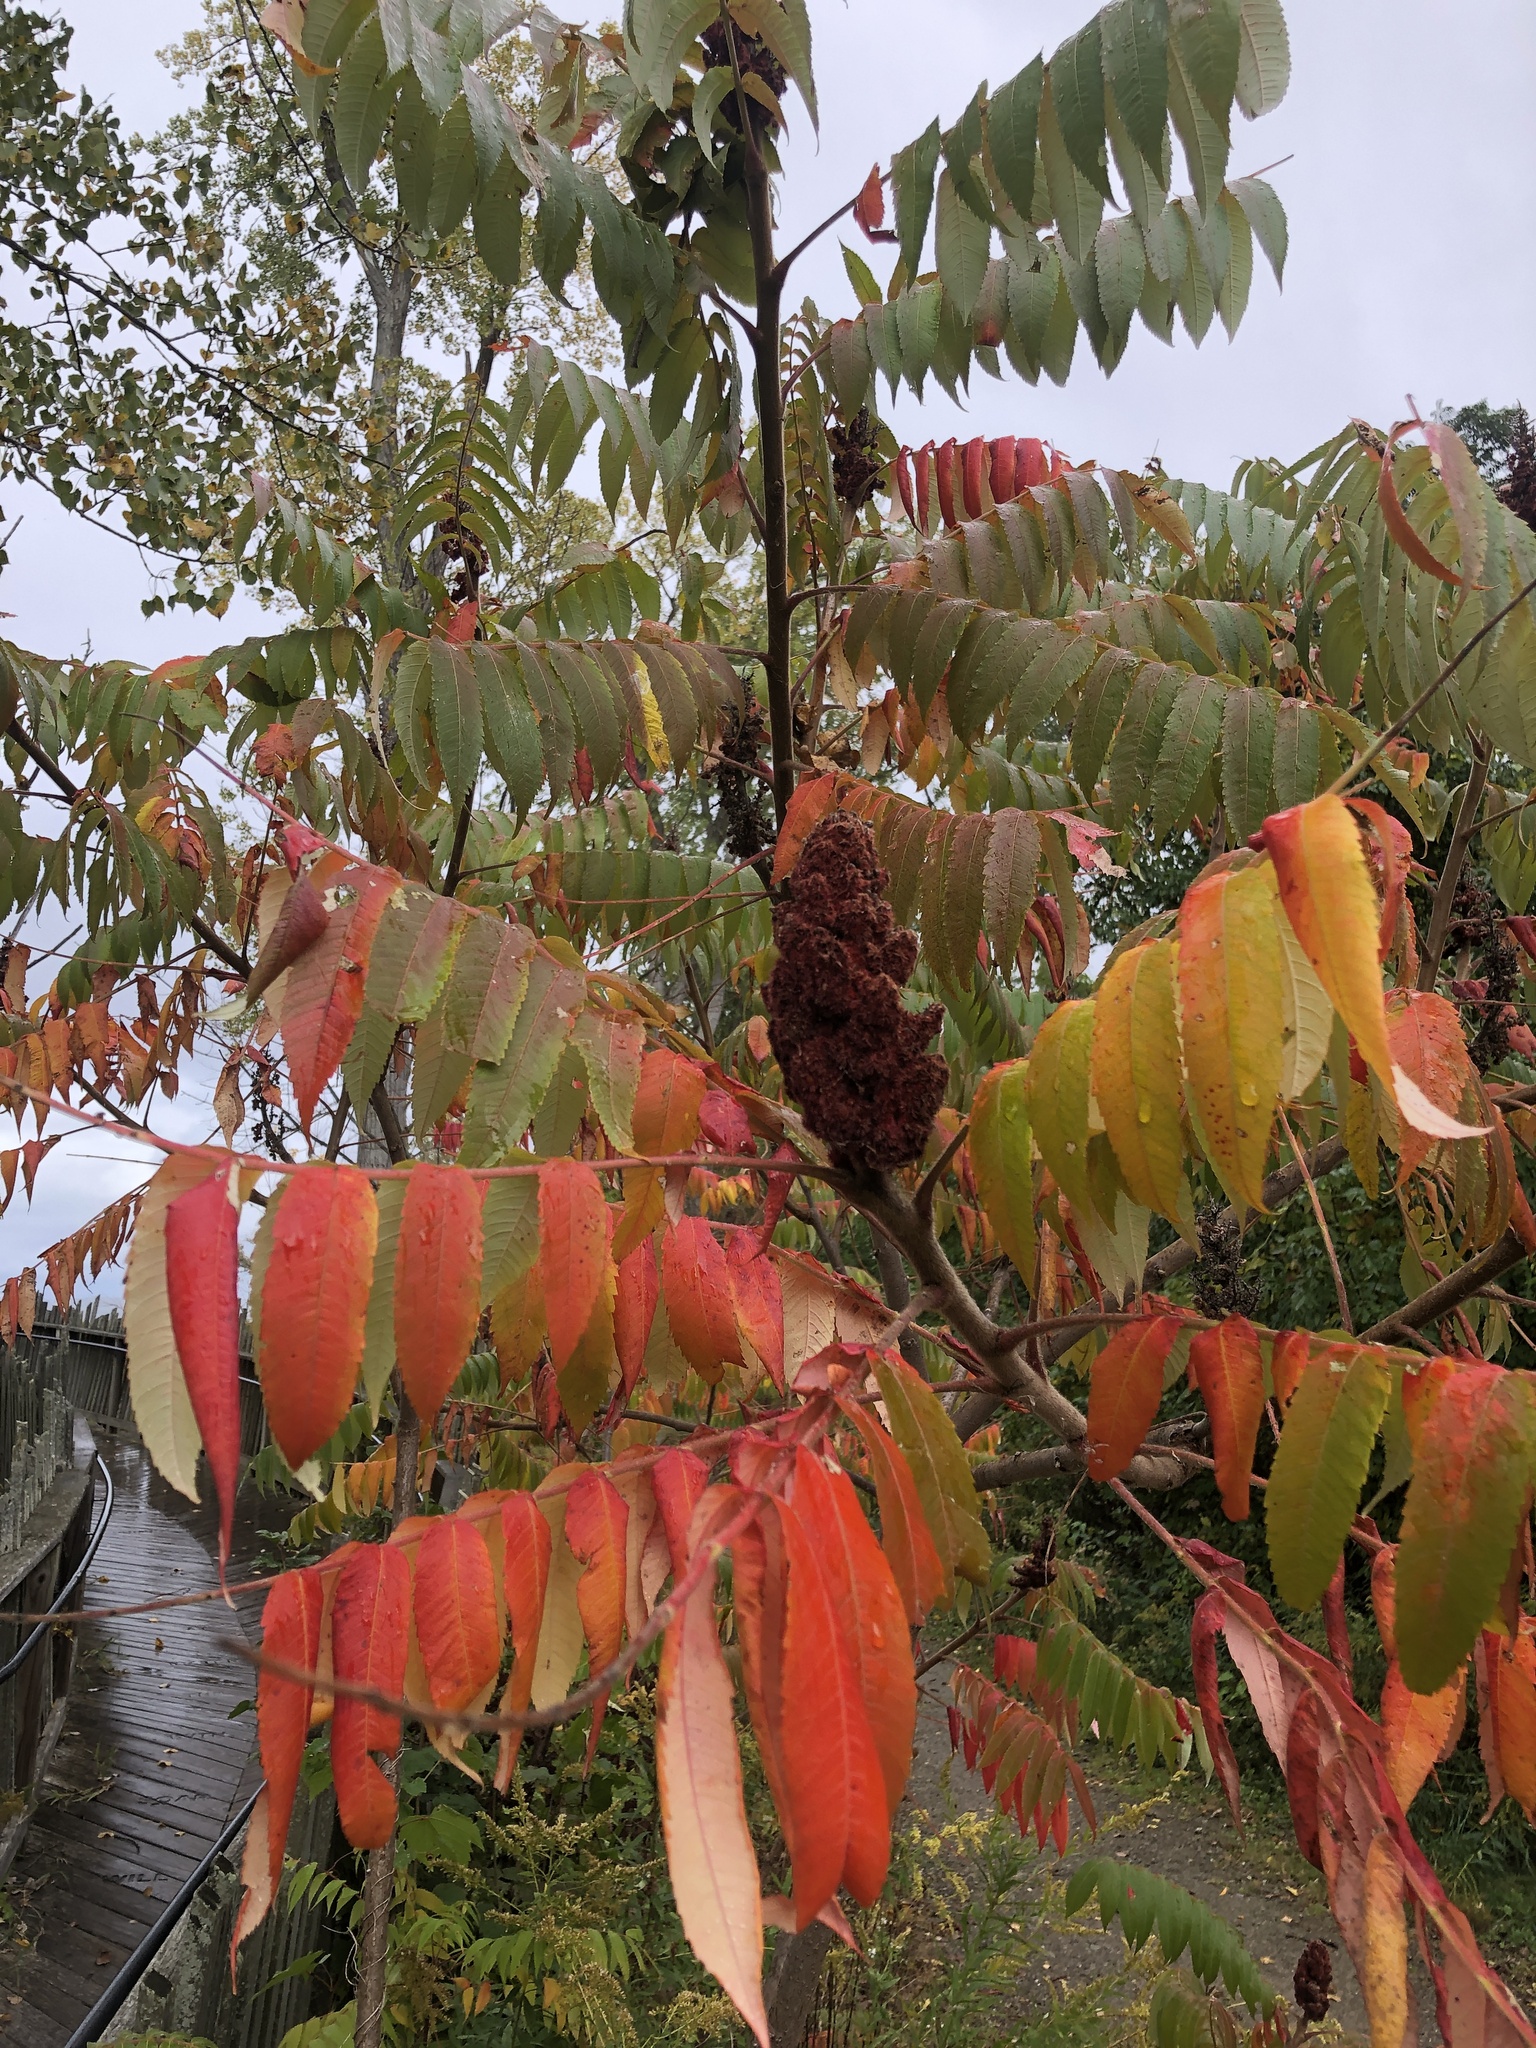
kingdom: Plantae
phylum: Tracheophyta
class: Magnoliopsida
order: Sapindales
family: Anacardiaceae
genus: Rhus
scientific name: Rhus typhina
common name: Staghorn sumac
